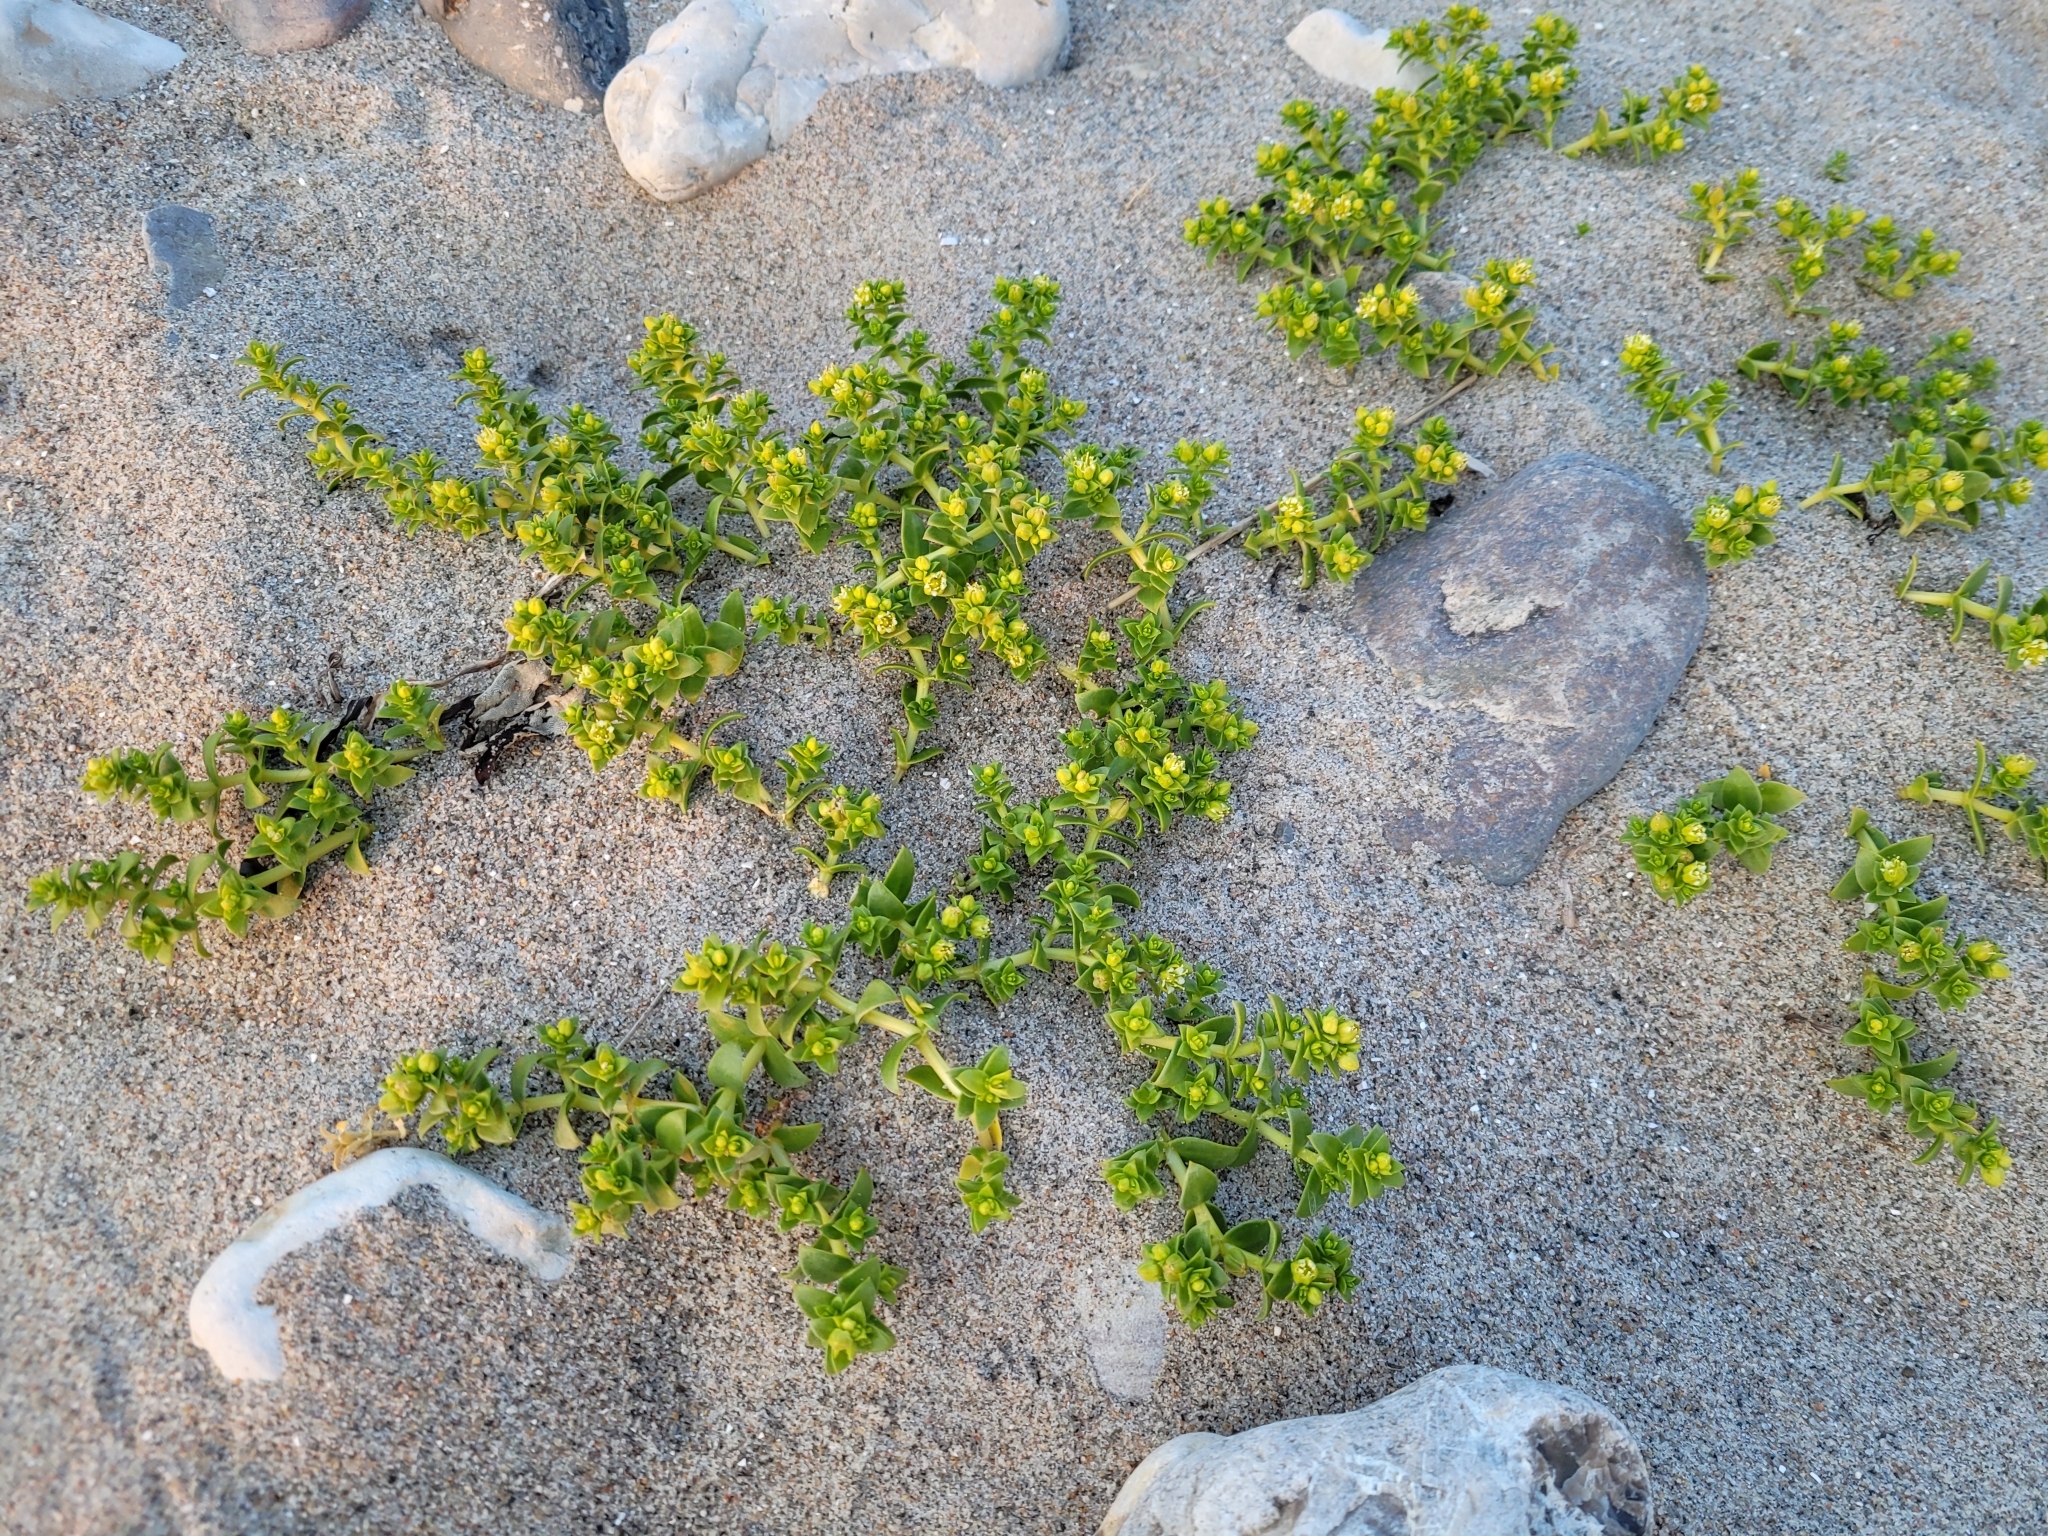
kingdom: Plantae
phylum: Tracheophyta
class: Magnoliopsida
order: Caryophyllales
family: Caryophyllaceae
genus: Honckenya
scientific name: Honckenya peploides
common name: Sea sandwort
